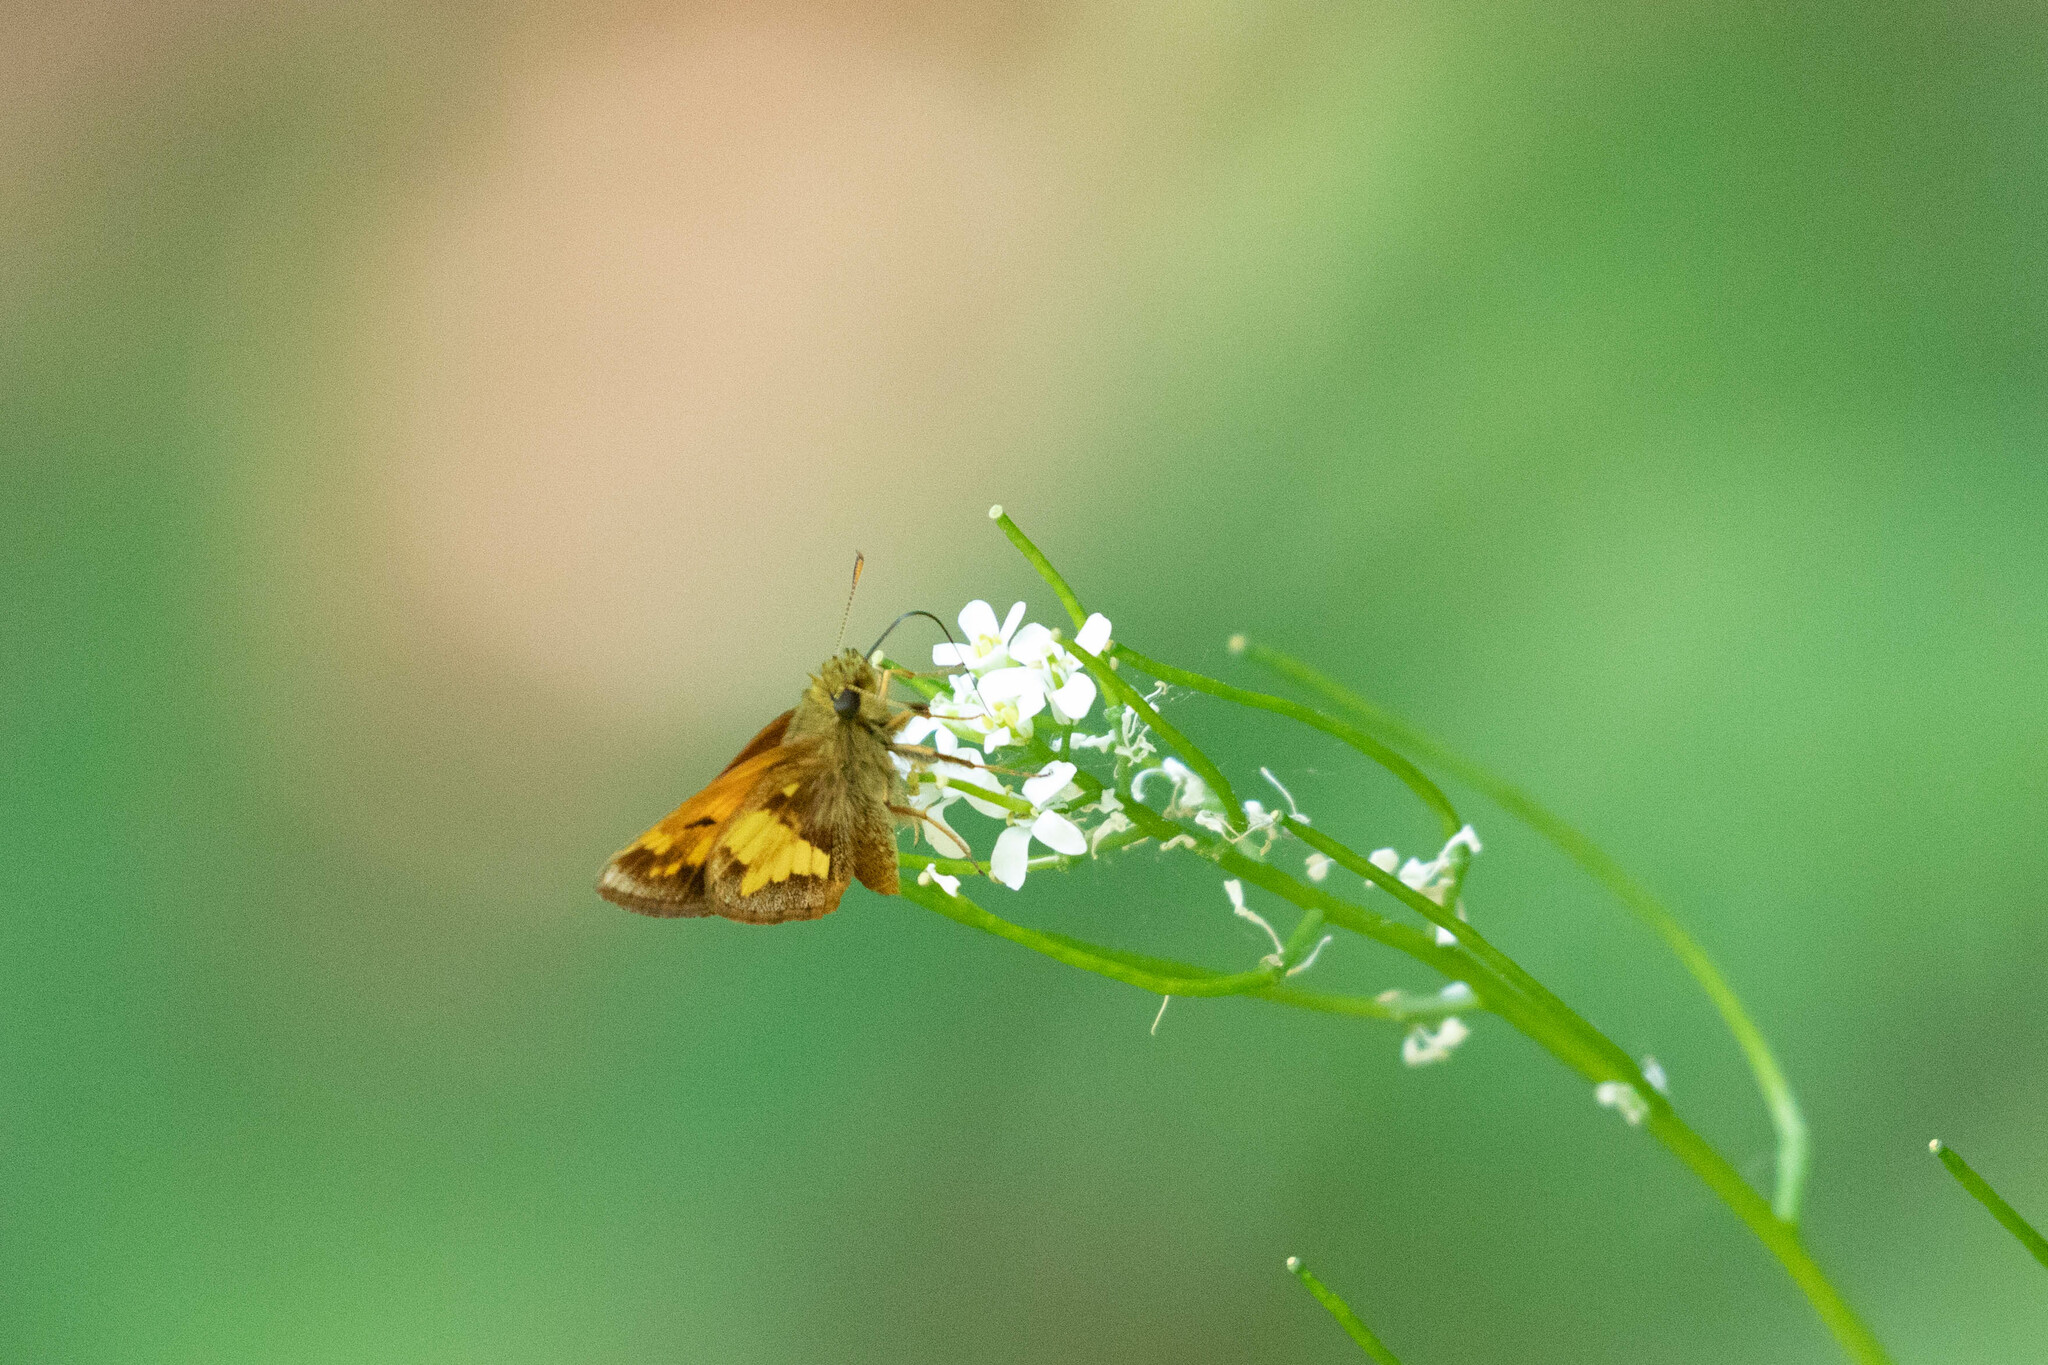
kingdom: Animalia
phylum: Arthropoda
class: Insecta
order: Lepidoptera
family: Hesperiidae
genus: Lon
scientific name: Lon hobomok
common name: Hobomok skipper
